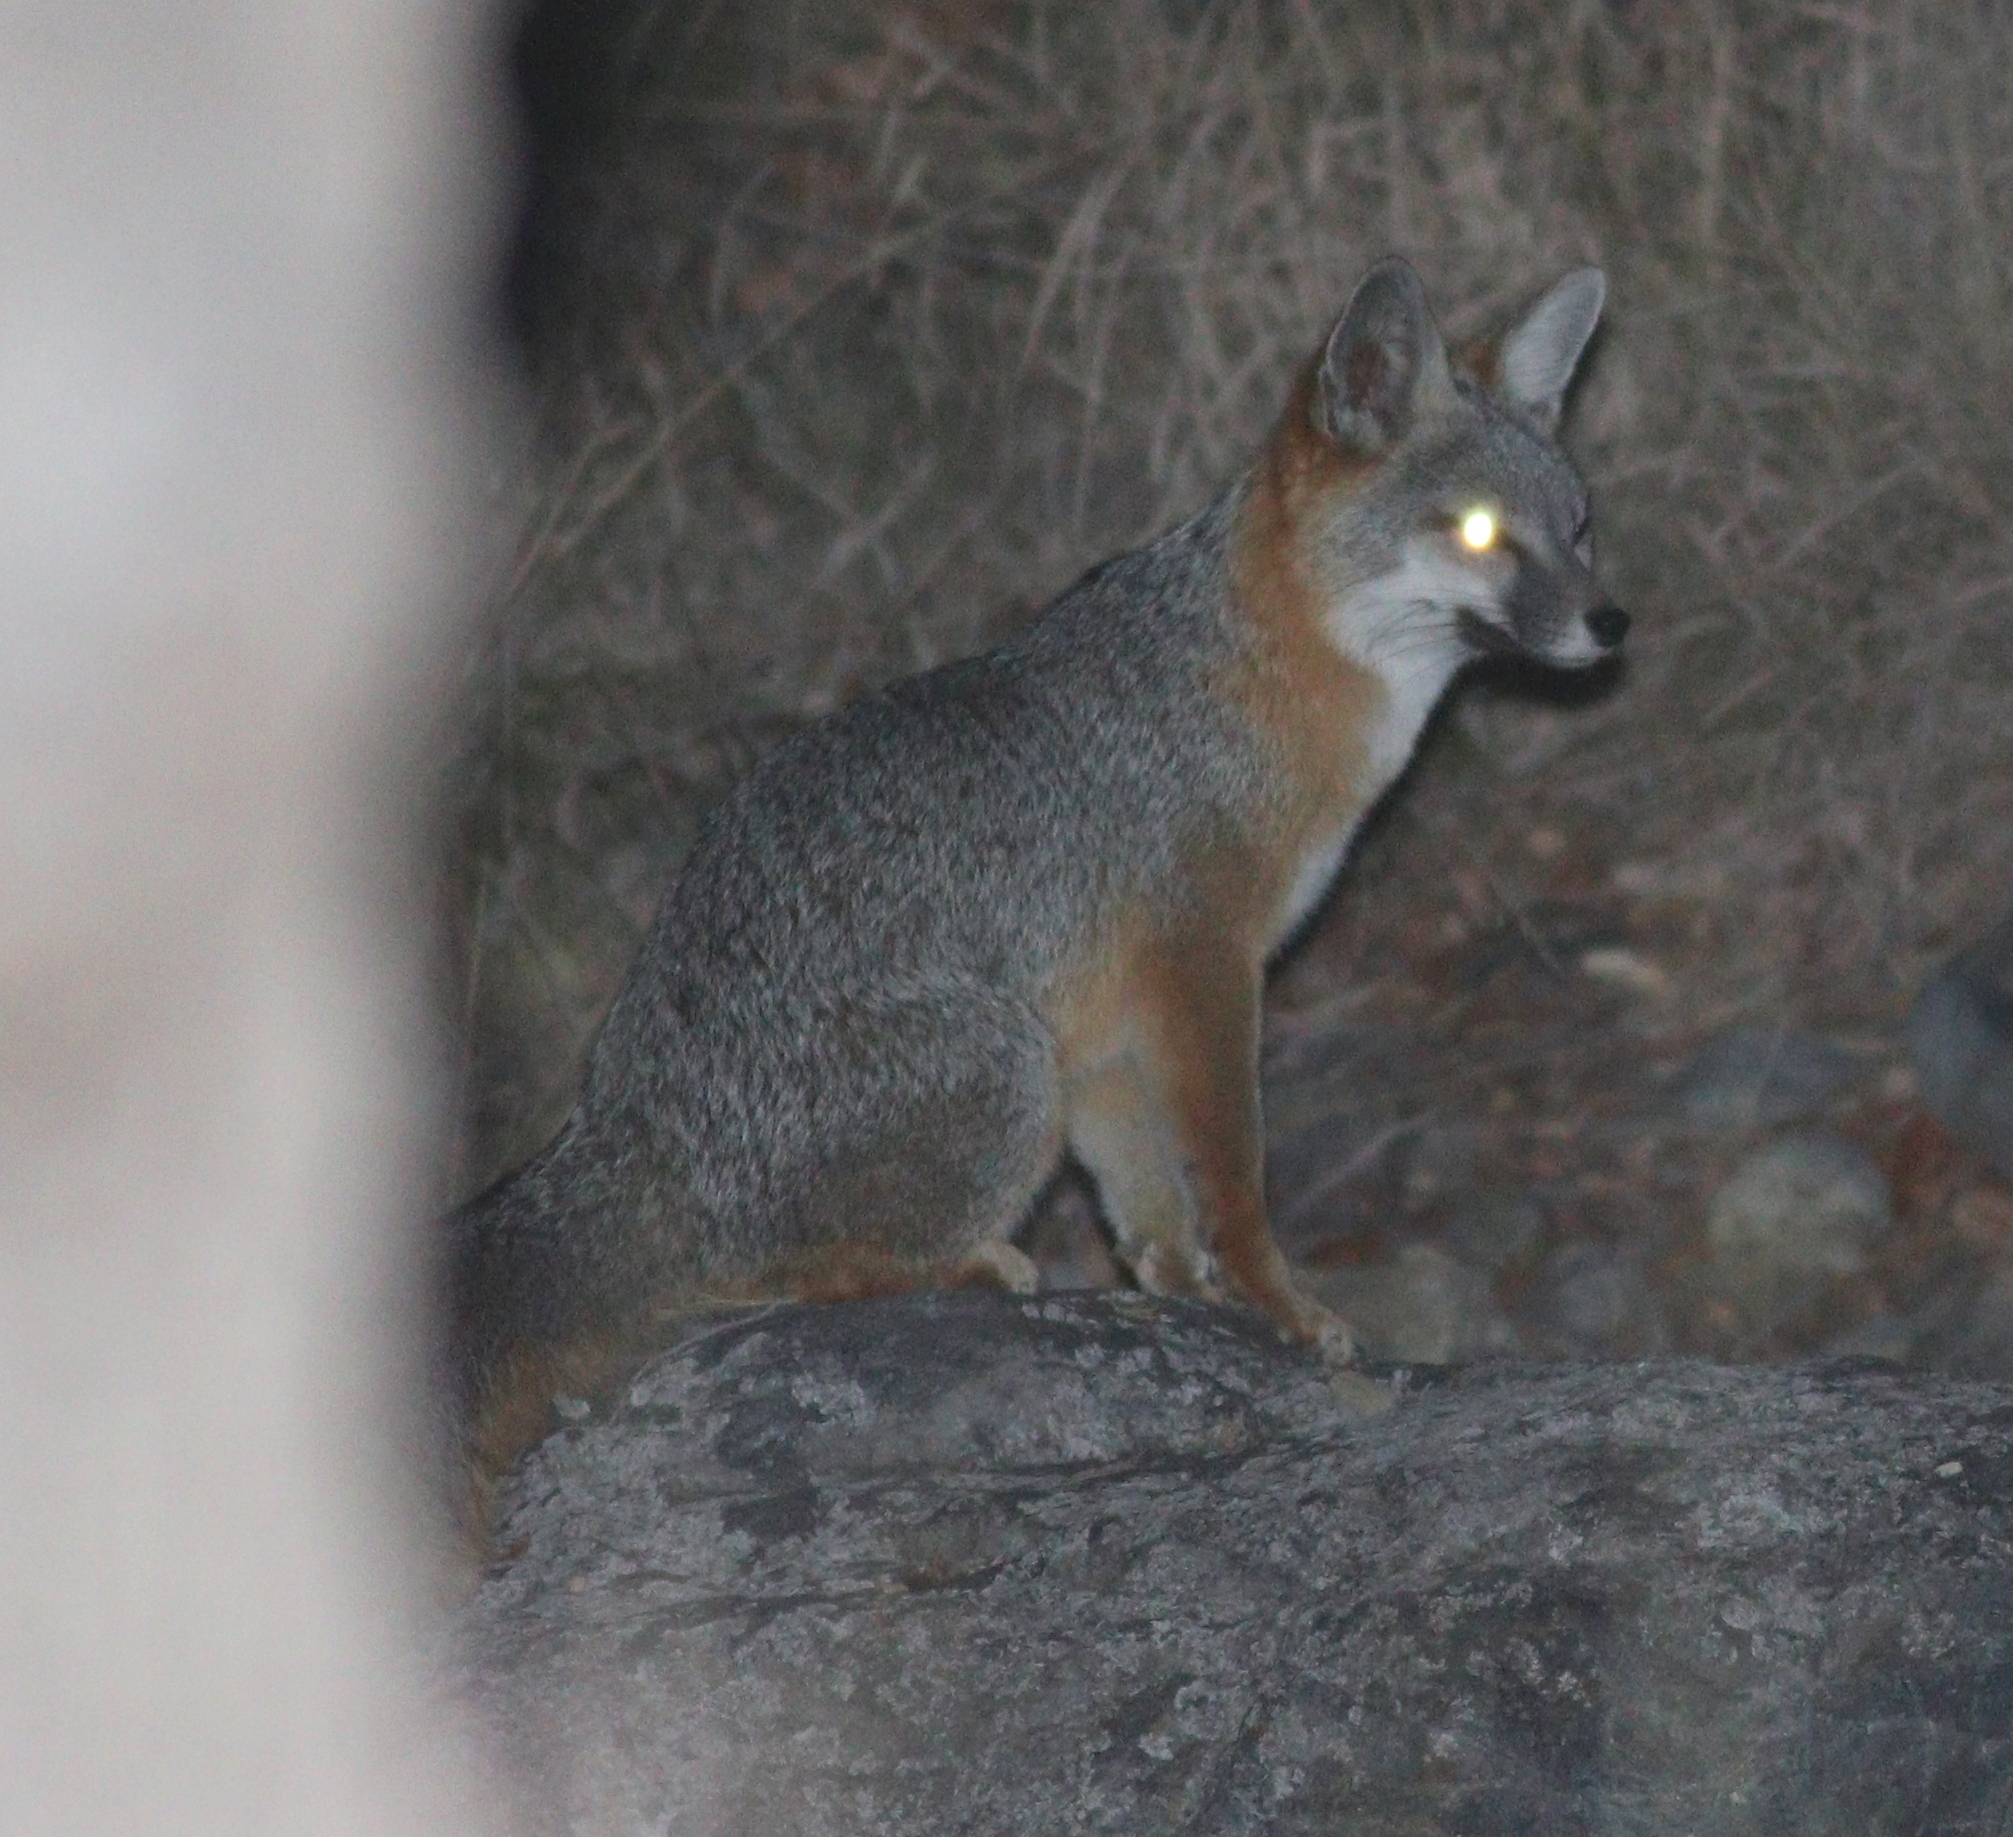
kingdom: Animalia
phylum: Chordata
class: Mammalia
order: Carnivora
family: Canidae
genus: Urocyon
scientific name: Urocyon cinereoargenteus
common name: Gray fox
